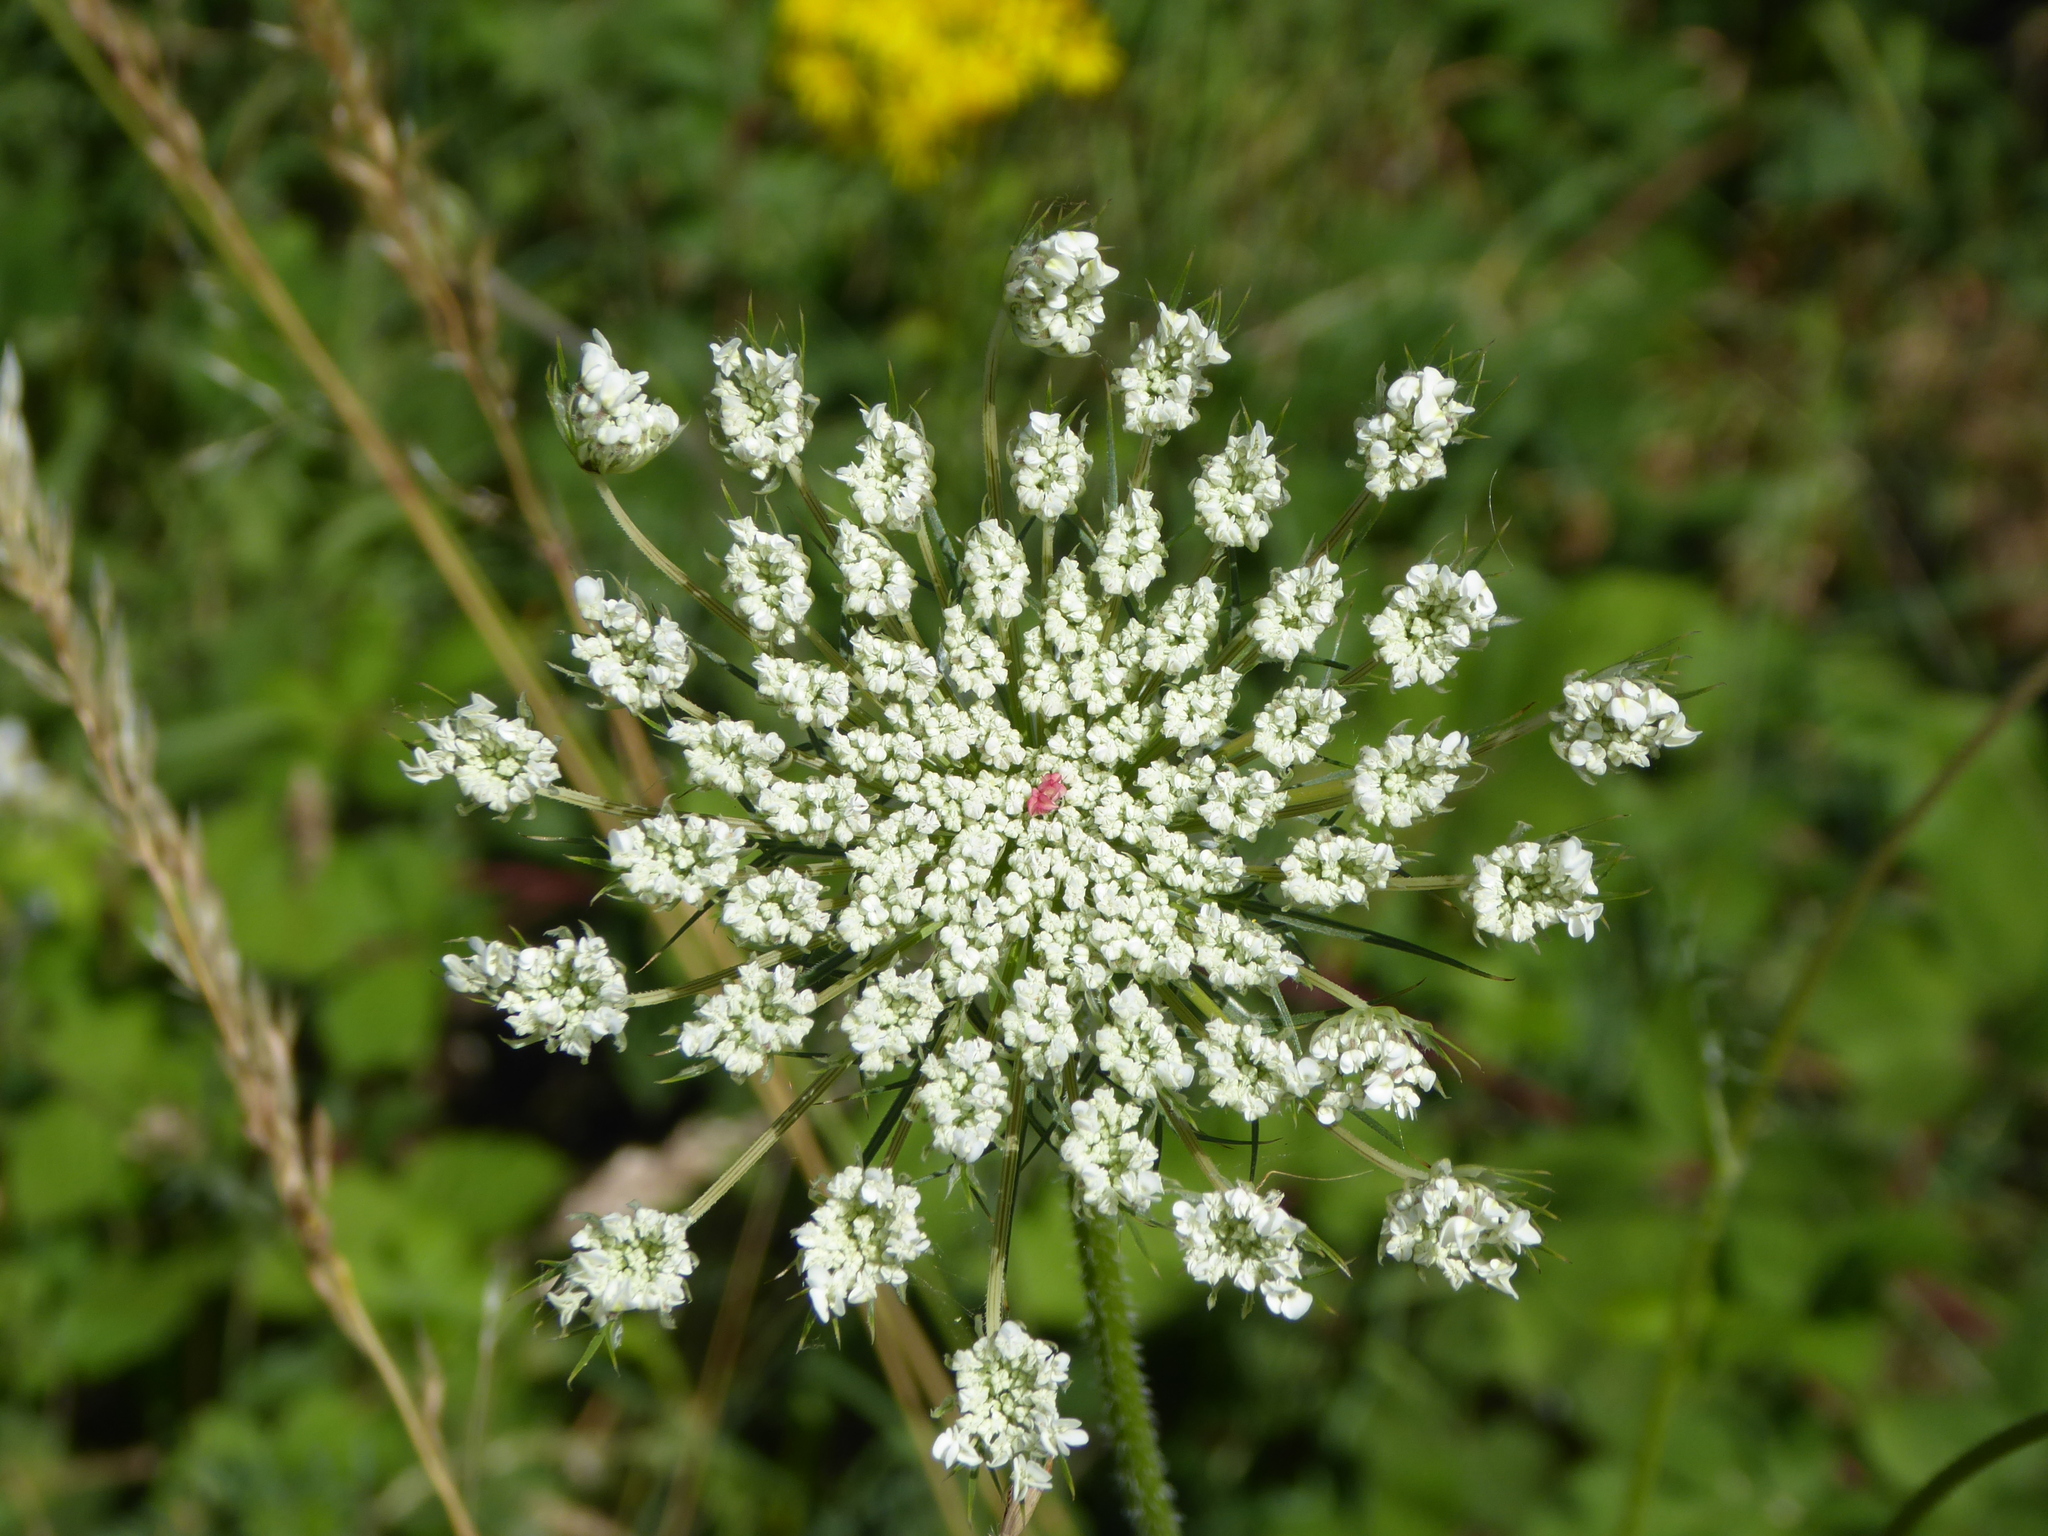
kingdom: Plantae
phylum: Tracheophyta
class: Magnoliopsida
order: Apiales
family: Apiaceae
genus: Daucus
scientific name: Daucus carota
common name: Wild carrot
